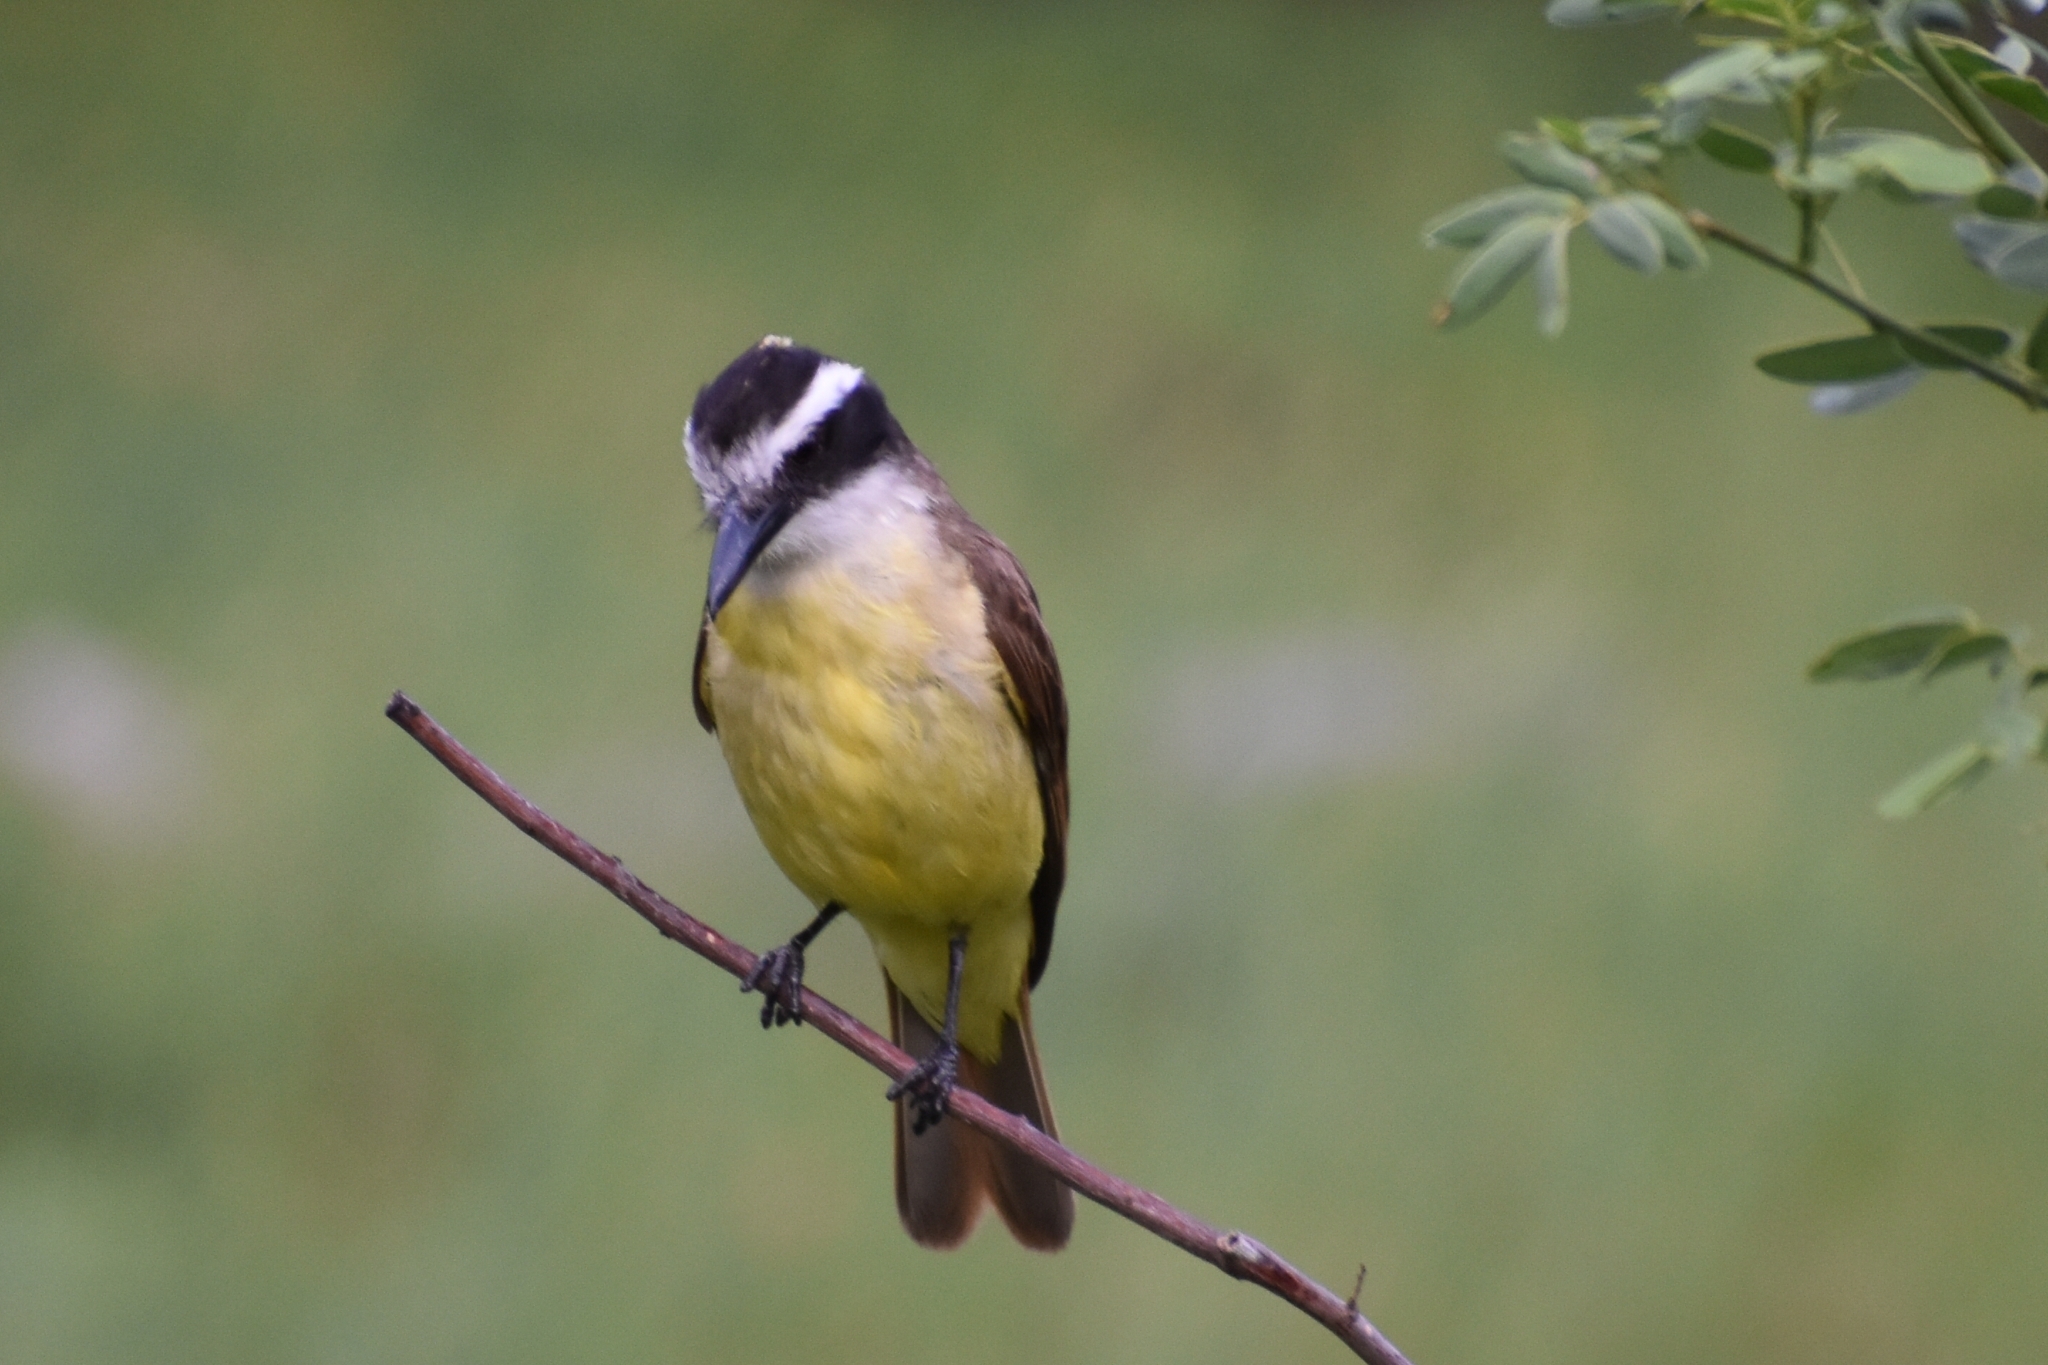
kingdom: Animalia
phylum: Chordata
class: Aves
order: Passeriformes
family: Tyrannidae
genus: Pitangus
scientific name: Pitangus sulphuratus
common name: Great kiskadee
